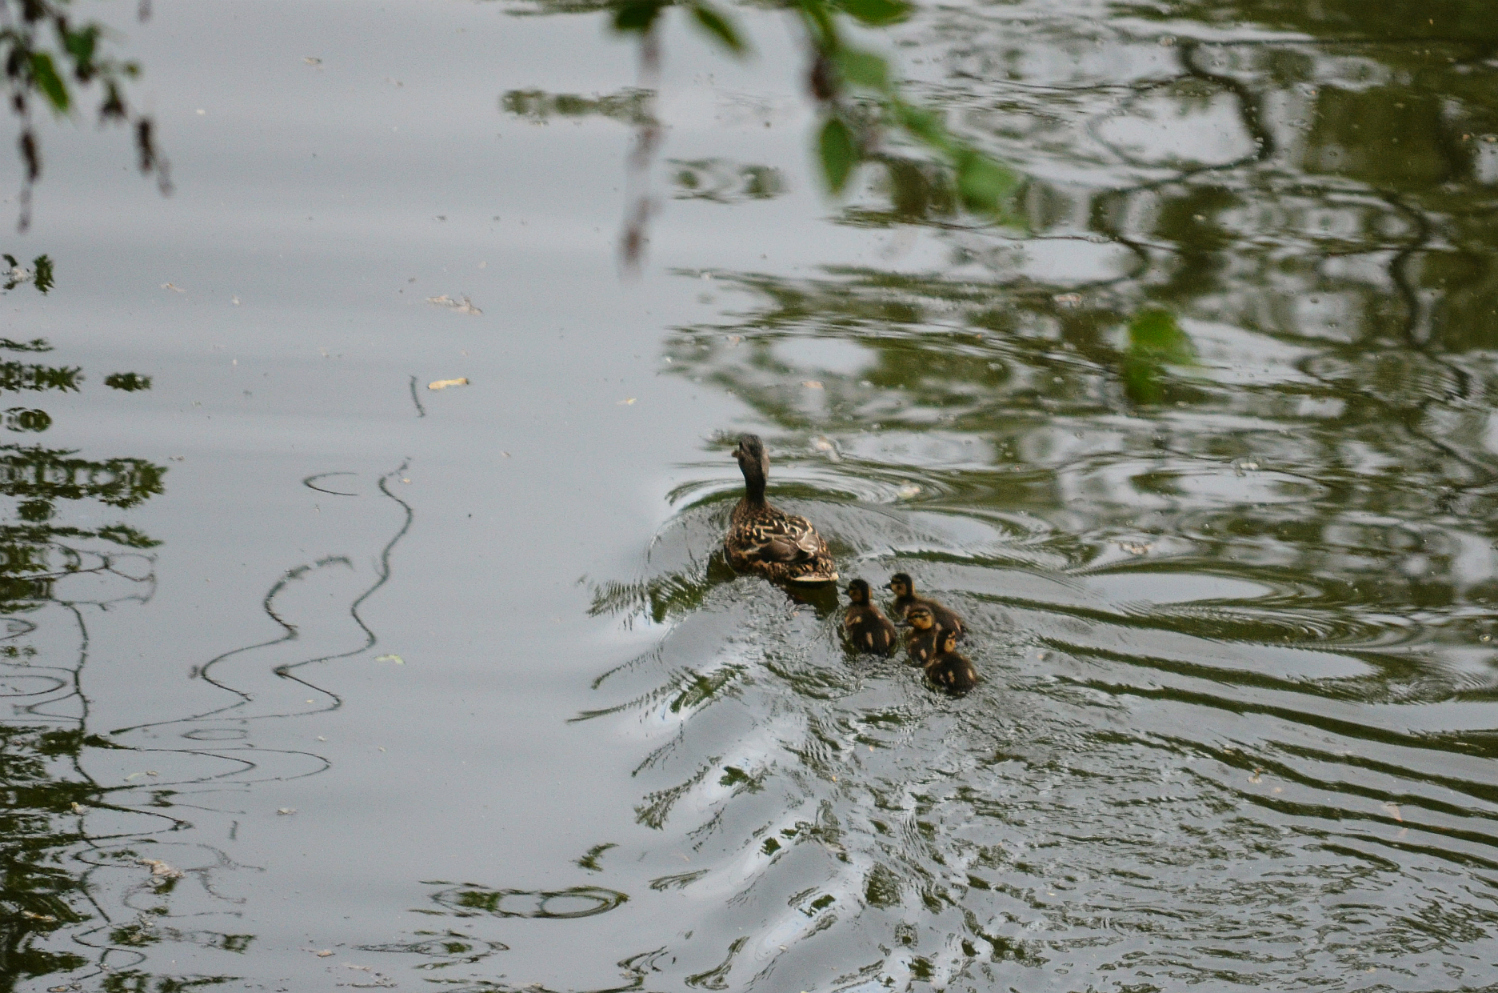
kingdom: Animalia
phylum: Chordata
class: Aves
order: Anseriformes
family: Anatidae
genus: Anas
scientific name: Anas platyrhynchos
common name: Mallard
